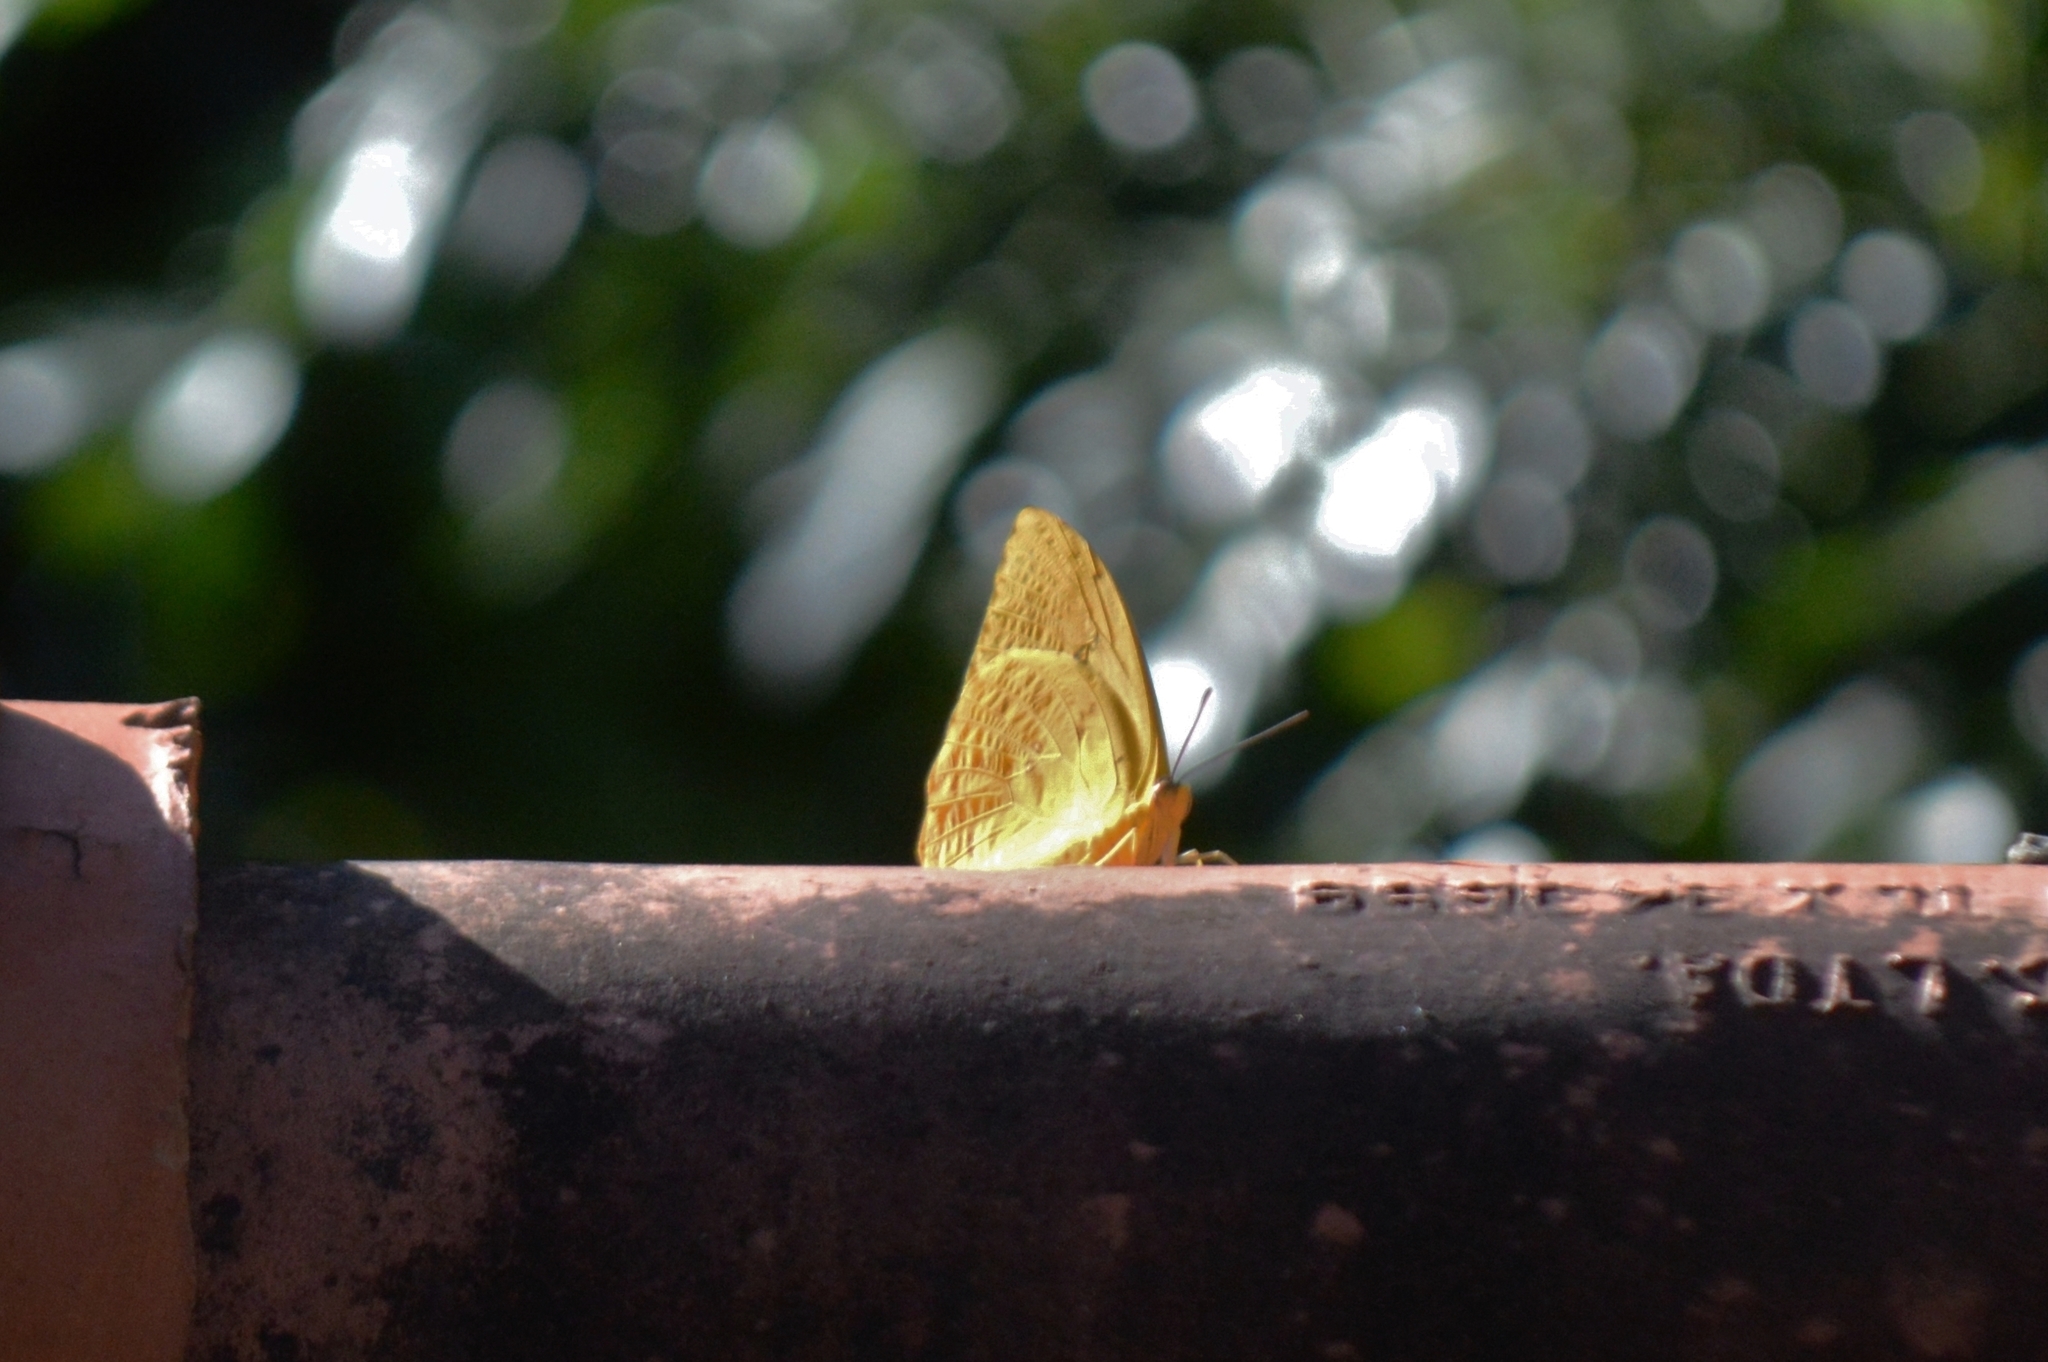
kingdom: Animalia
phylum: Arthropoda
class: Insecta
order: Lepidoptera
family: Pieridae
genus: Phoebis
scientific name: Phoebis philea
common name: Orange-barred giant sulphur
